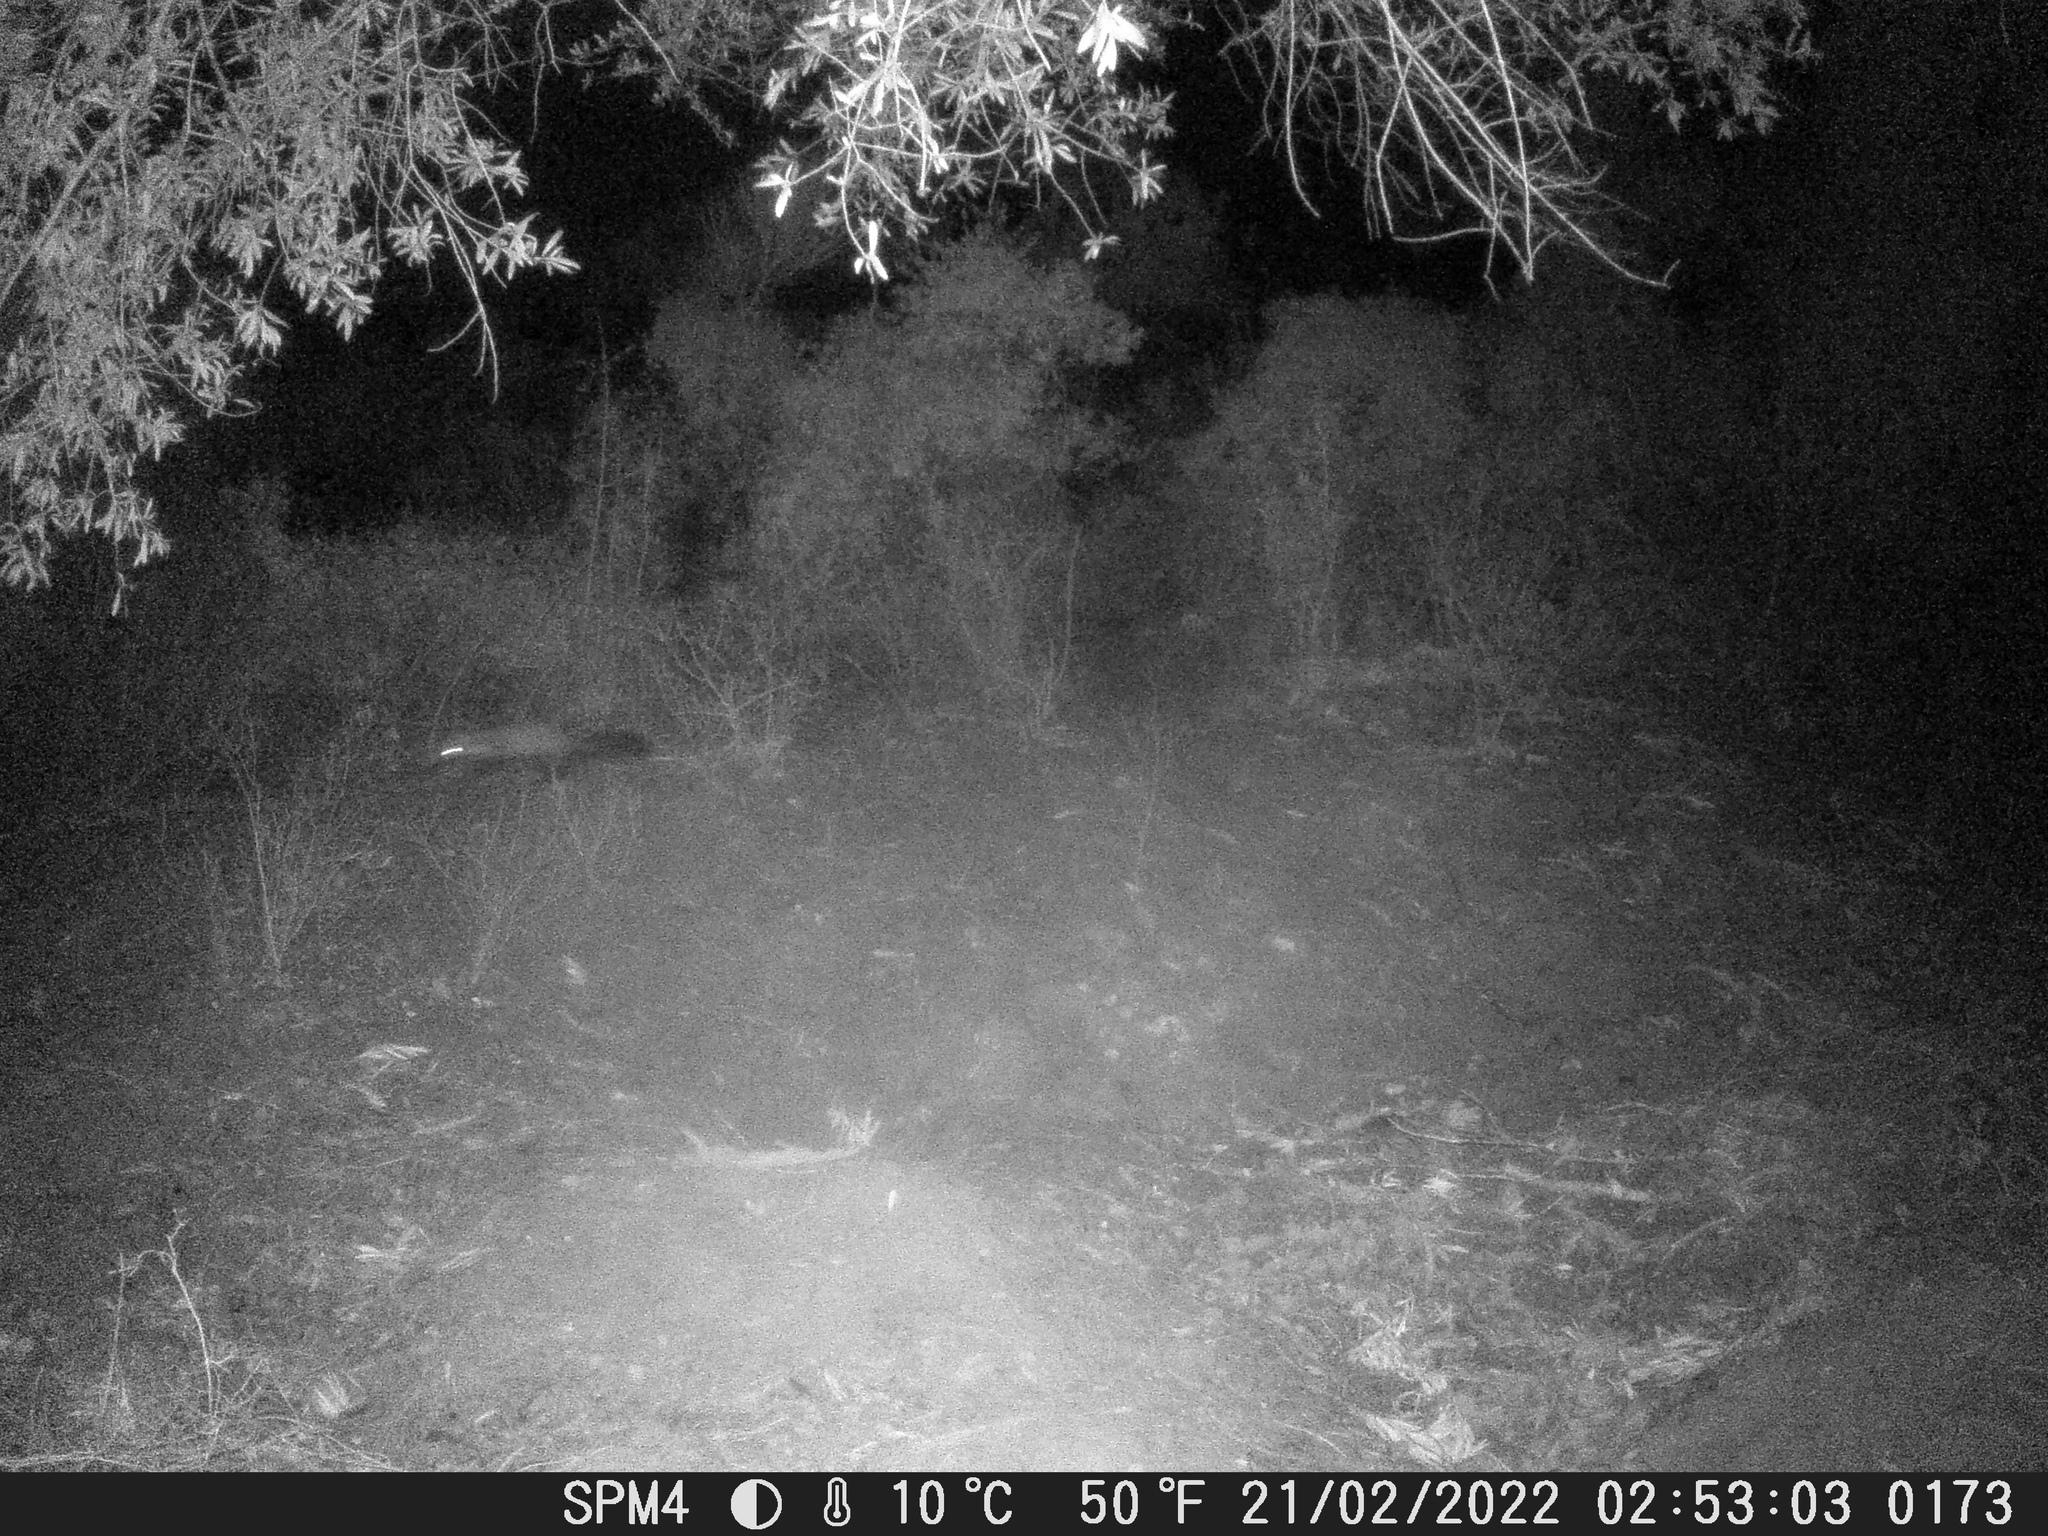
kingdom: Animalia
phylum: Chordata
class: Mammalia
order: Carnivora
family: Mustelidae
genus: Martes
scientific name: Martes foina
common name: Beech marten
